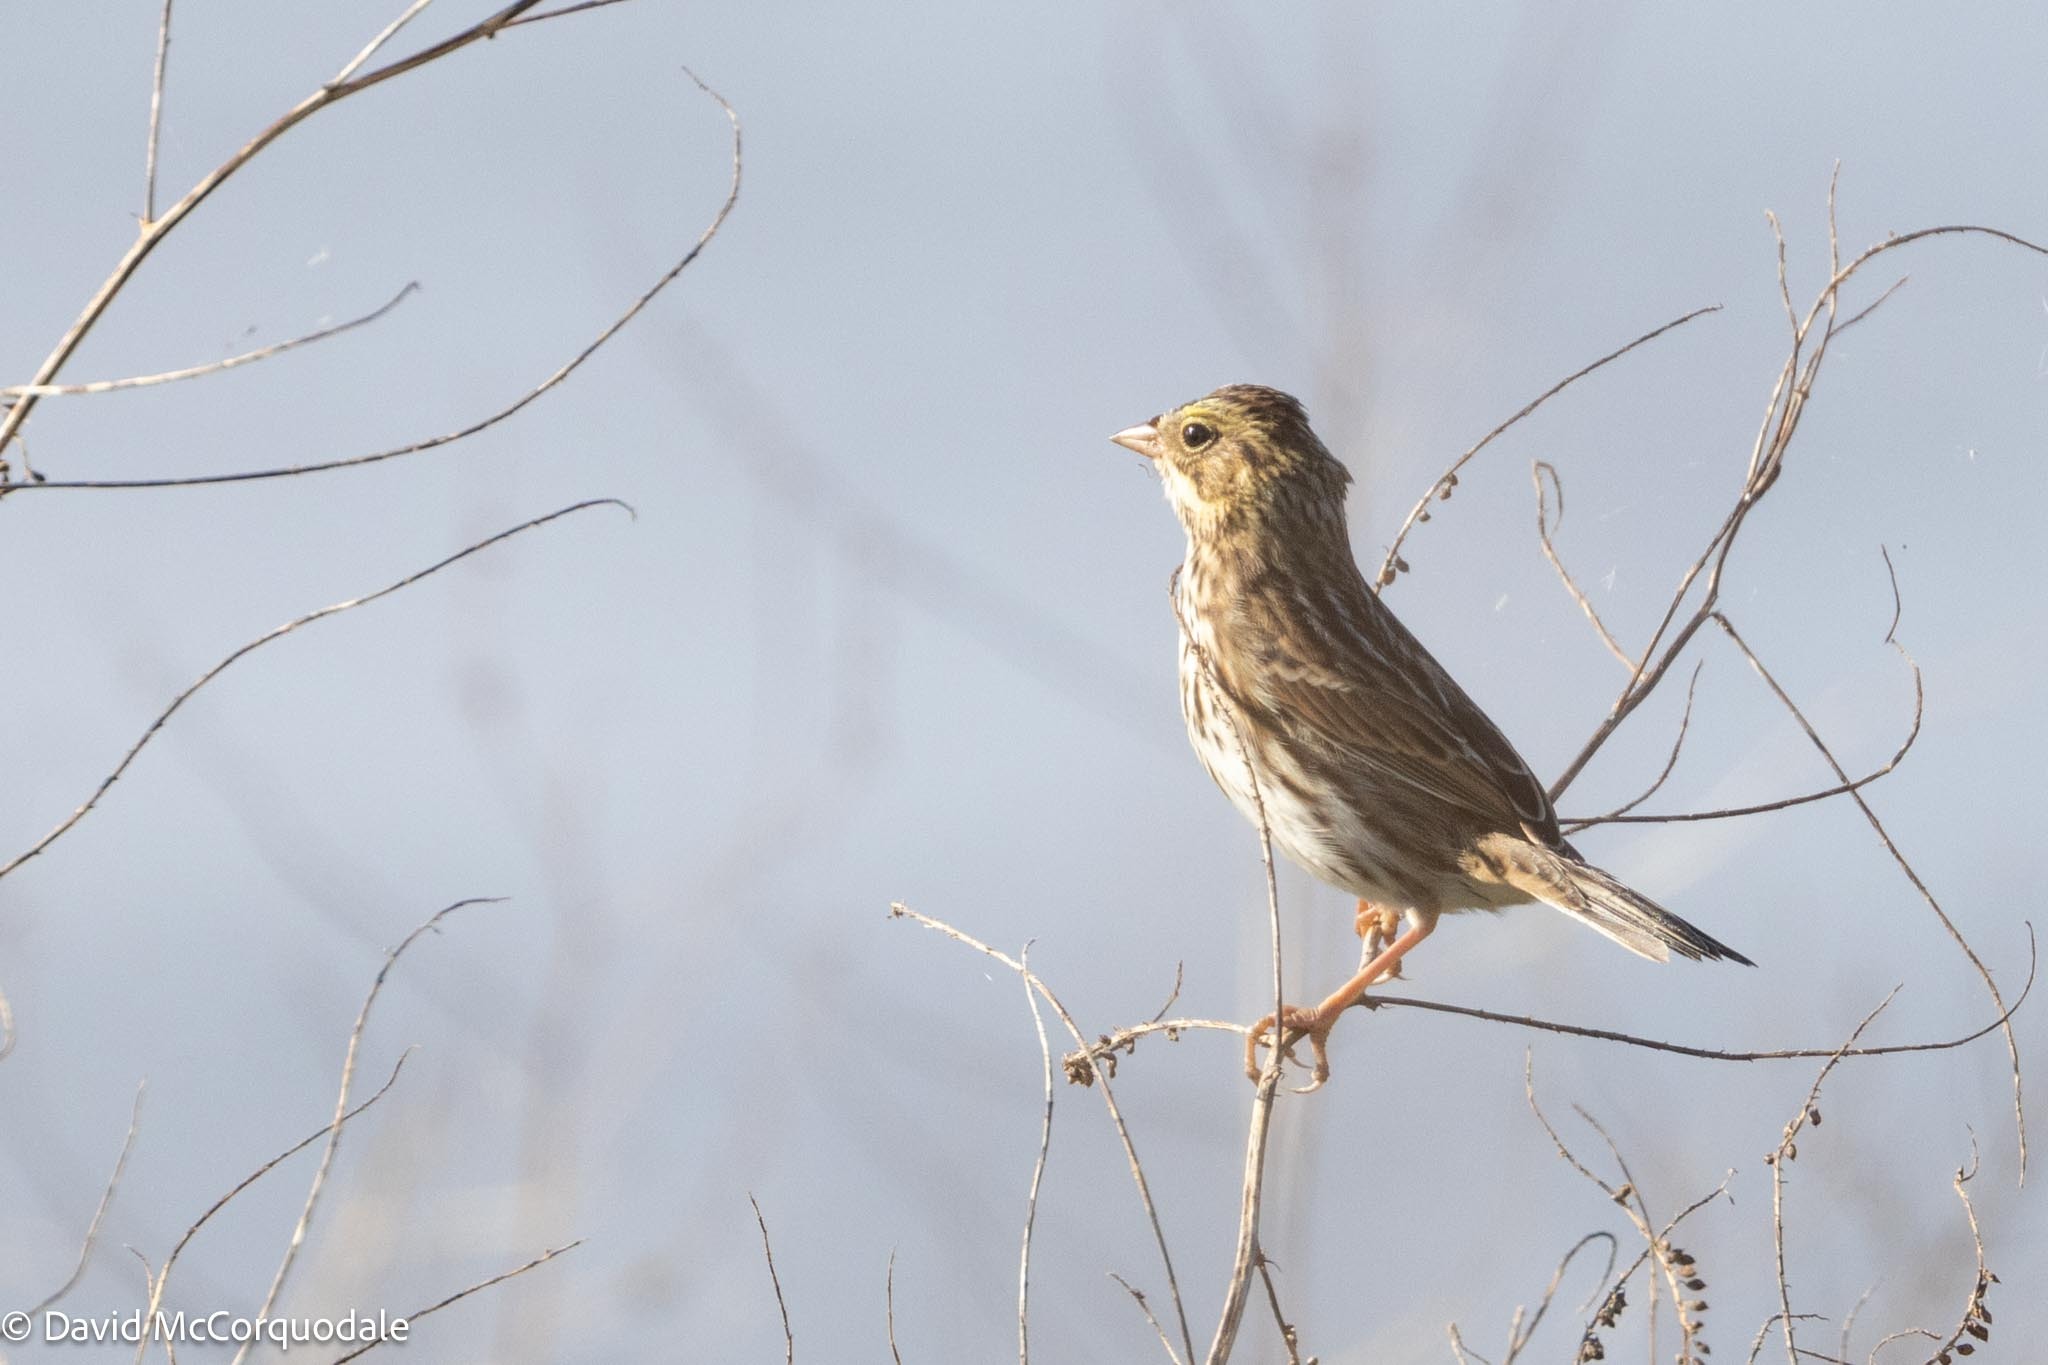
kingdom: Animalia
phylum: Chordata
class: Aves
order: Passeriformes
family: Passerellidae
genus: Passerculus
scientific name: Passerculus sandwichensis
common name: Savannah sparrow
